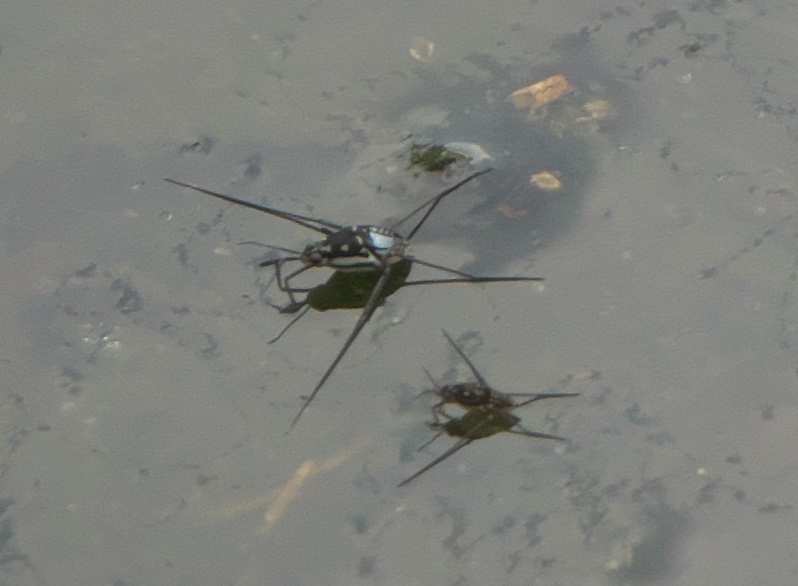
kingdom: Animalia
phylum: Arthropoda
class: Insecta
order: Hemiptera
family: Gerridae
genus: Trepobates
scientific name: Trepobates subnitidus
